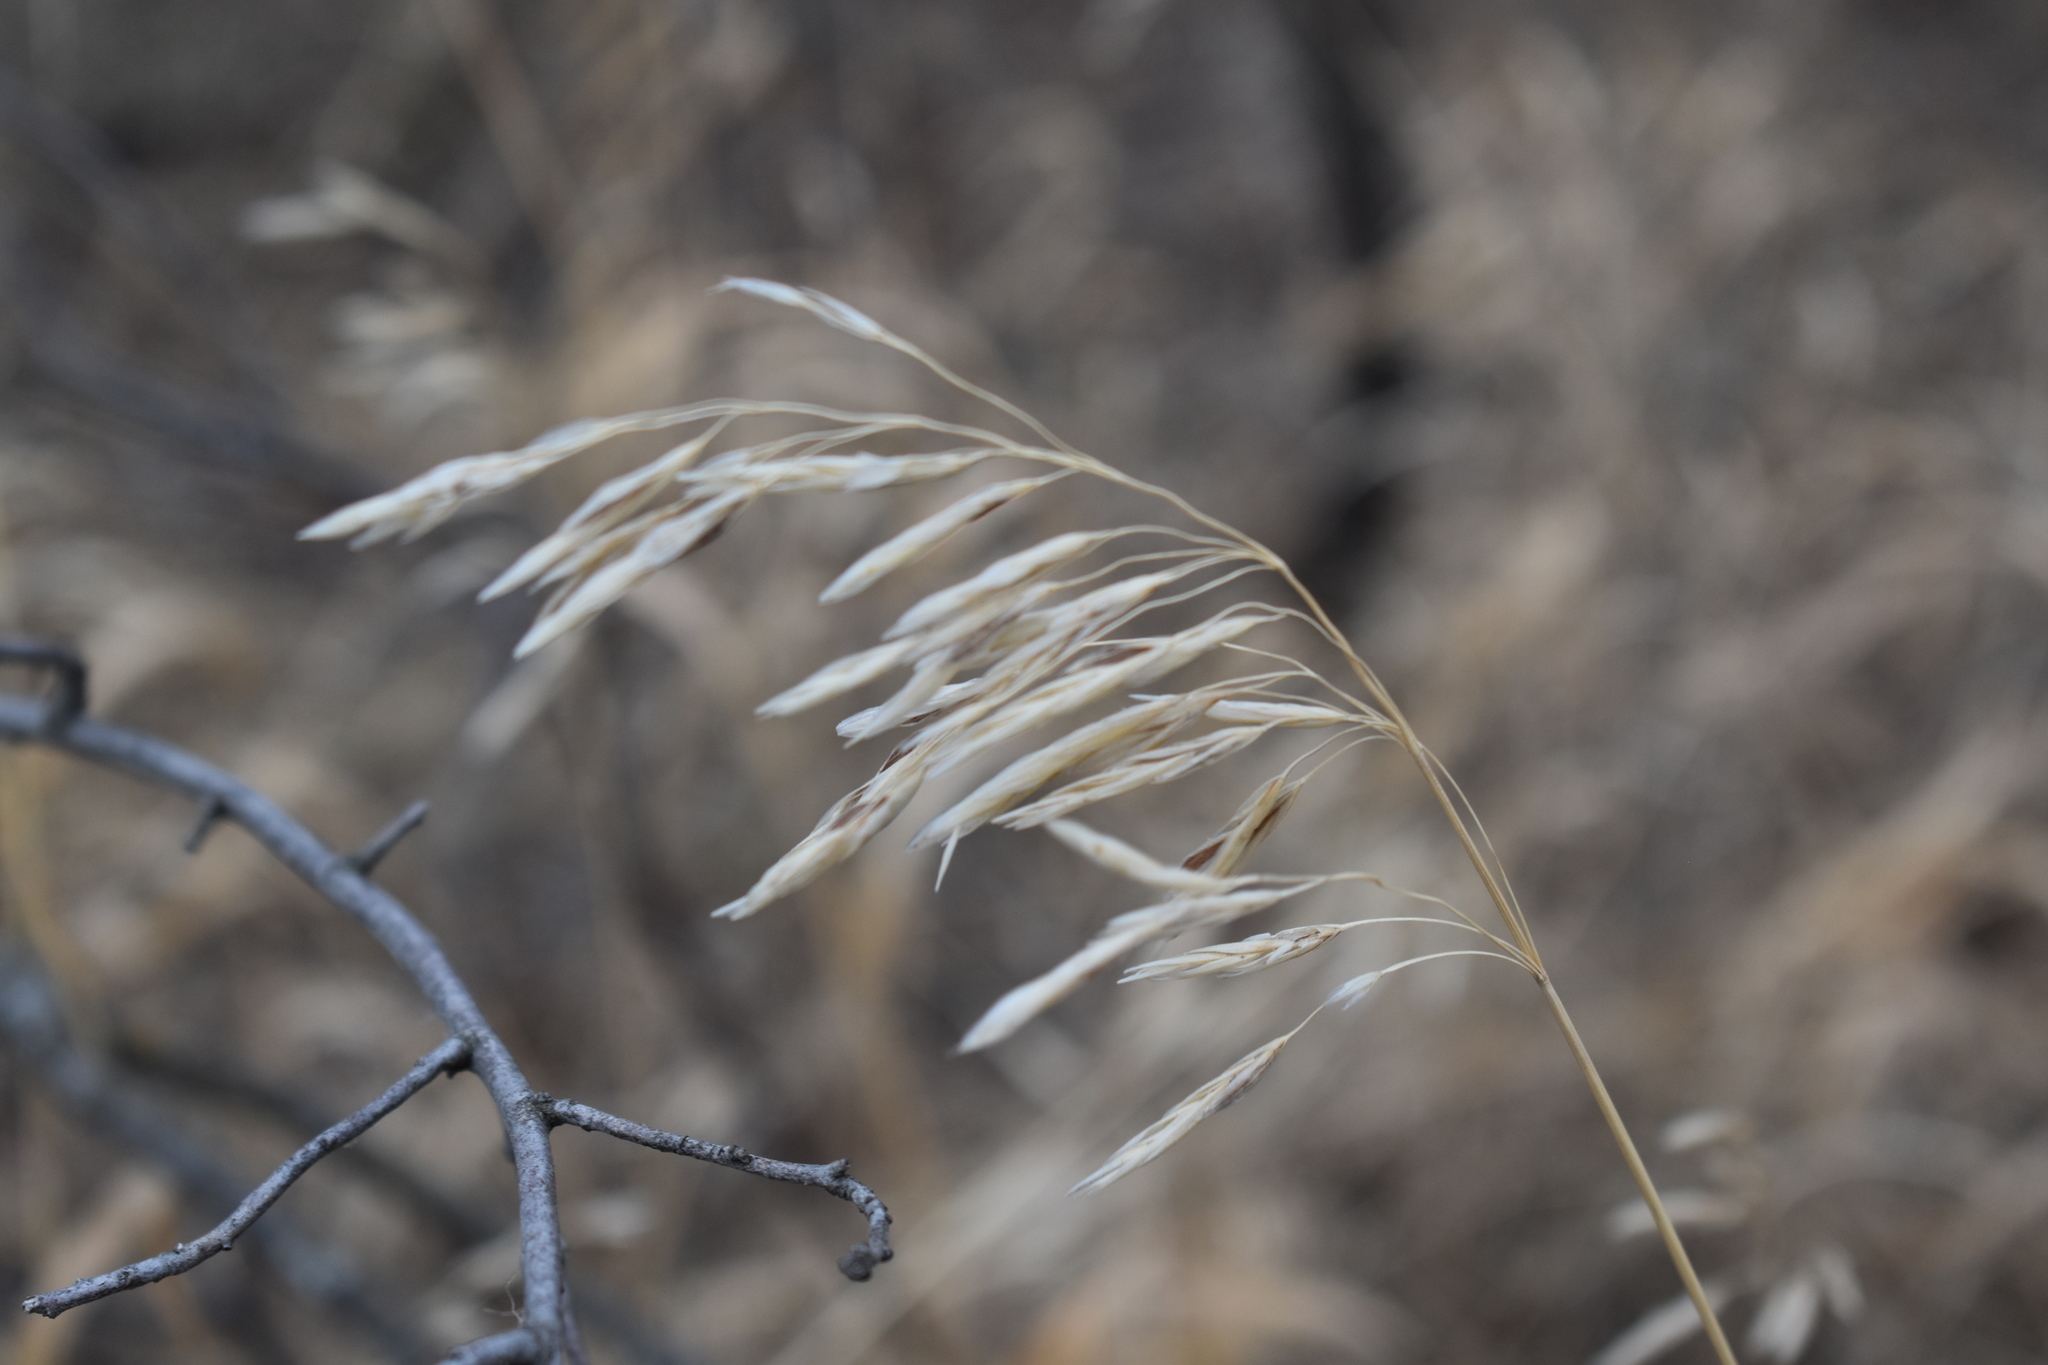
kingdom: Plantae
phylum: Tracheophyta
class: Liliopsida
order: Poales
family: Poaceae
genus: Bromus
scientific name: Bromus inermis
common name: Smooth brome
